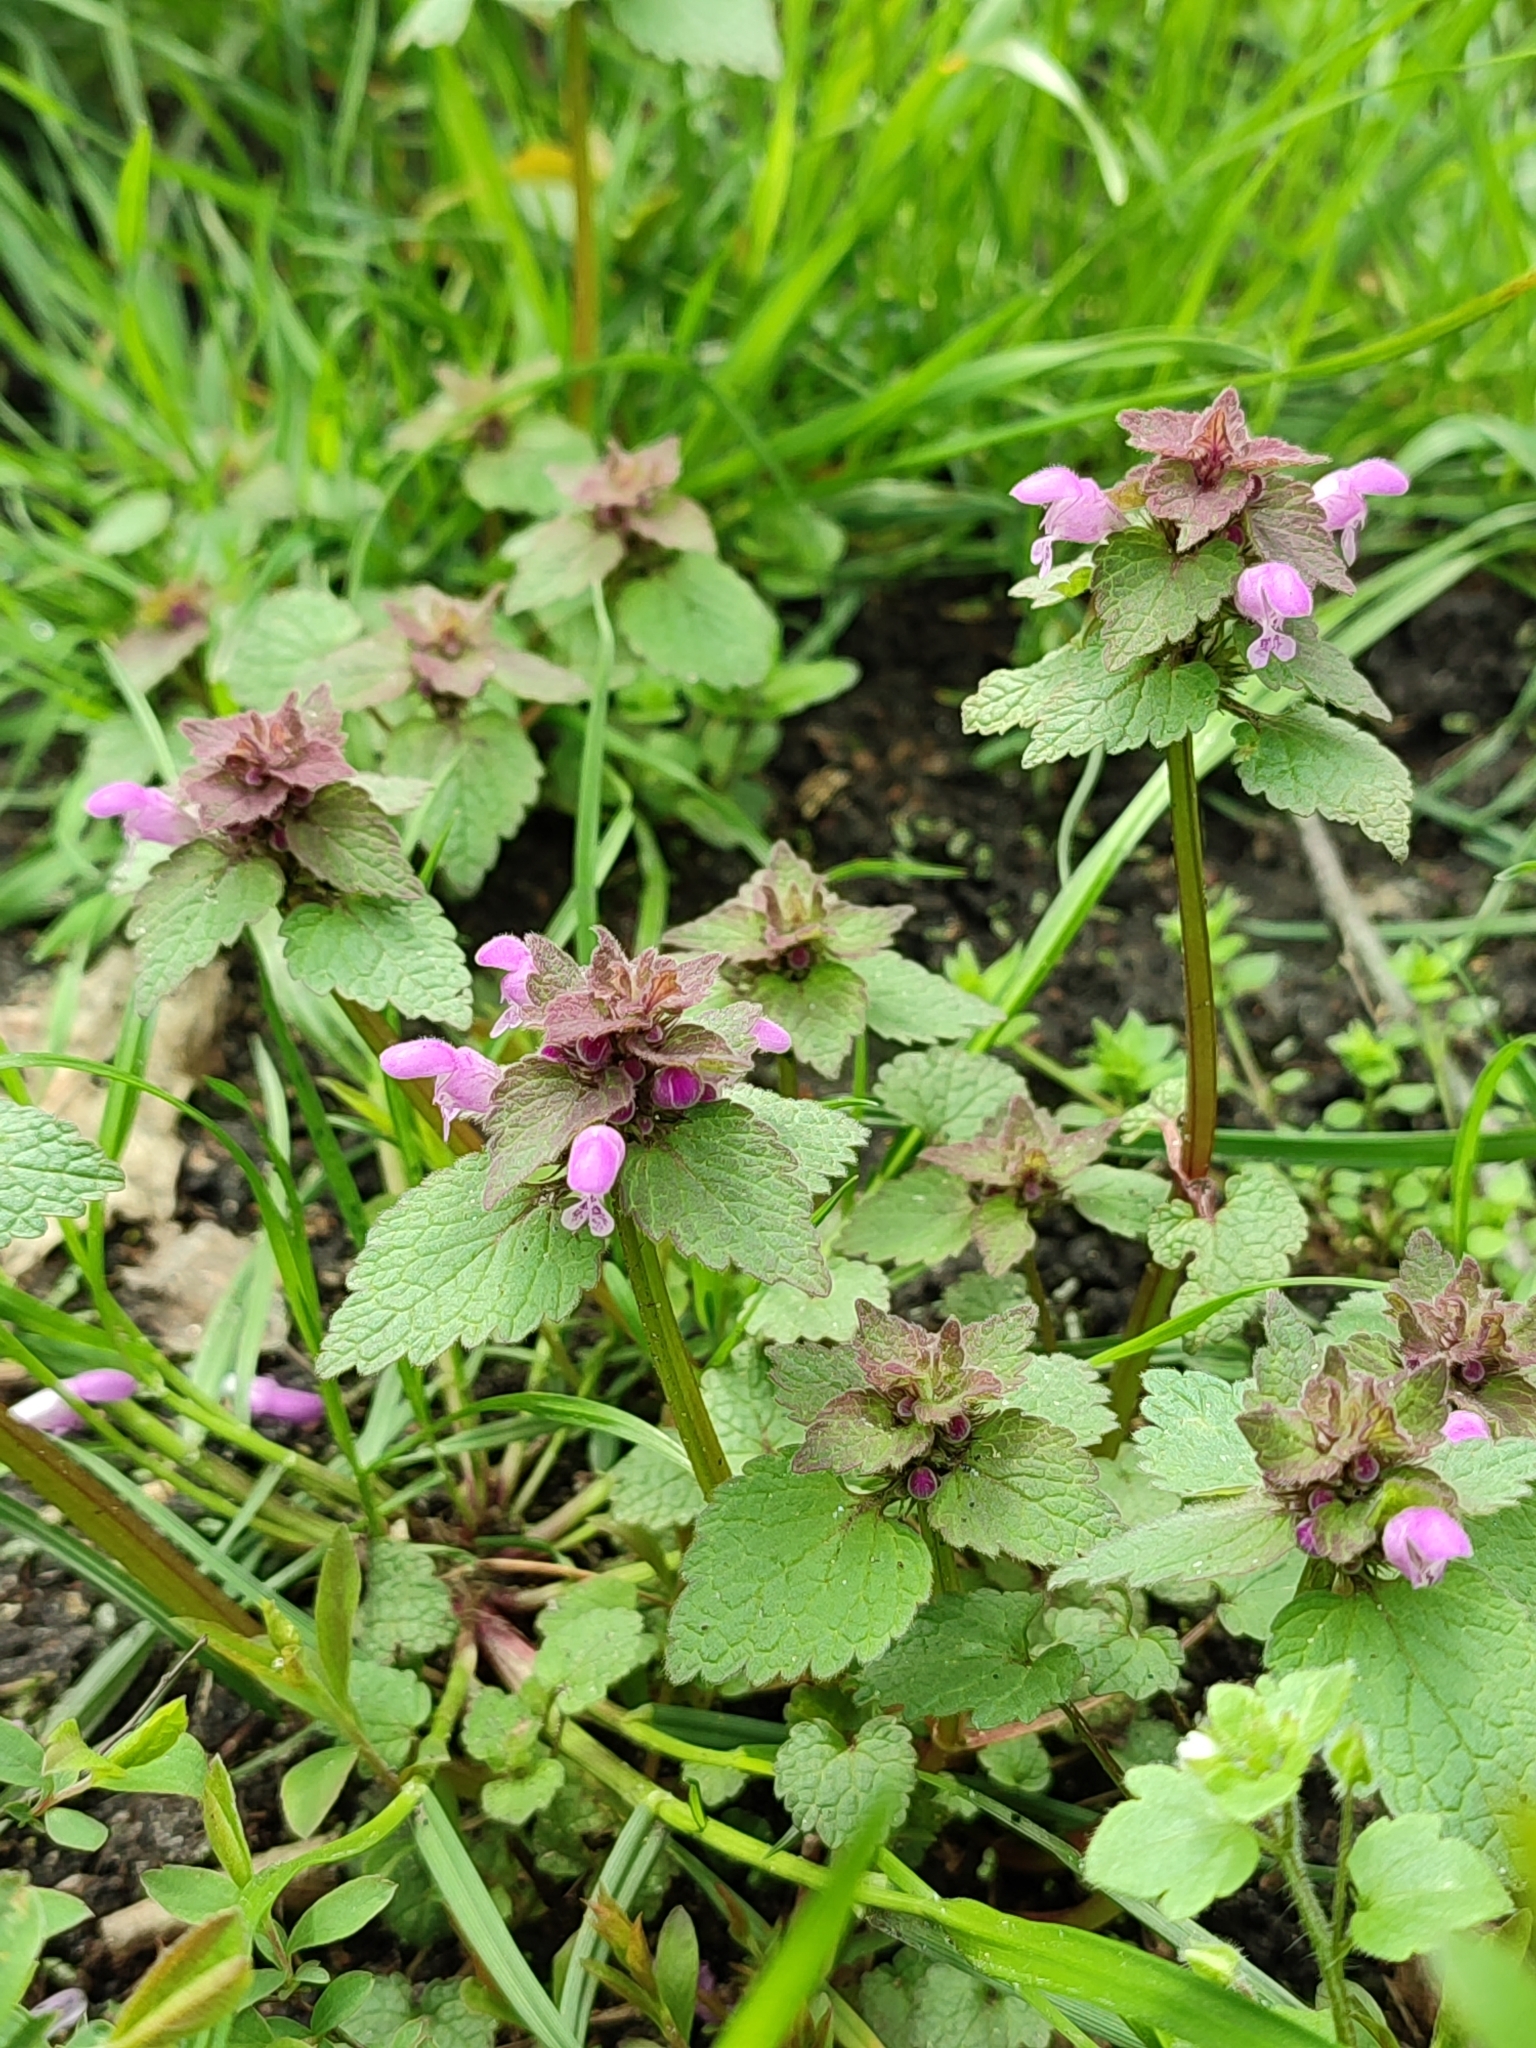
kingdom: Plantae
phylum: Tracheophyta
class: Magnoliopsida
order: Lamiales
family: Lamiaceae
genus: Lamium
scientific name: Lamium purpureum
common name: Red dead-nettle
